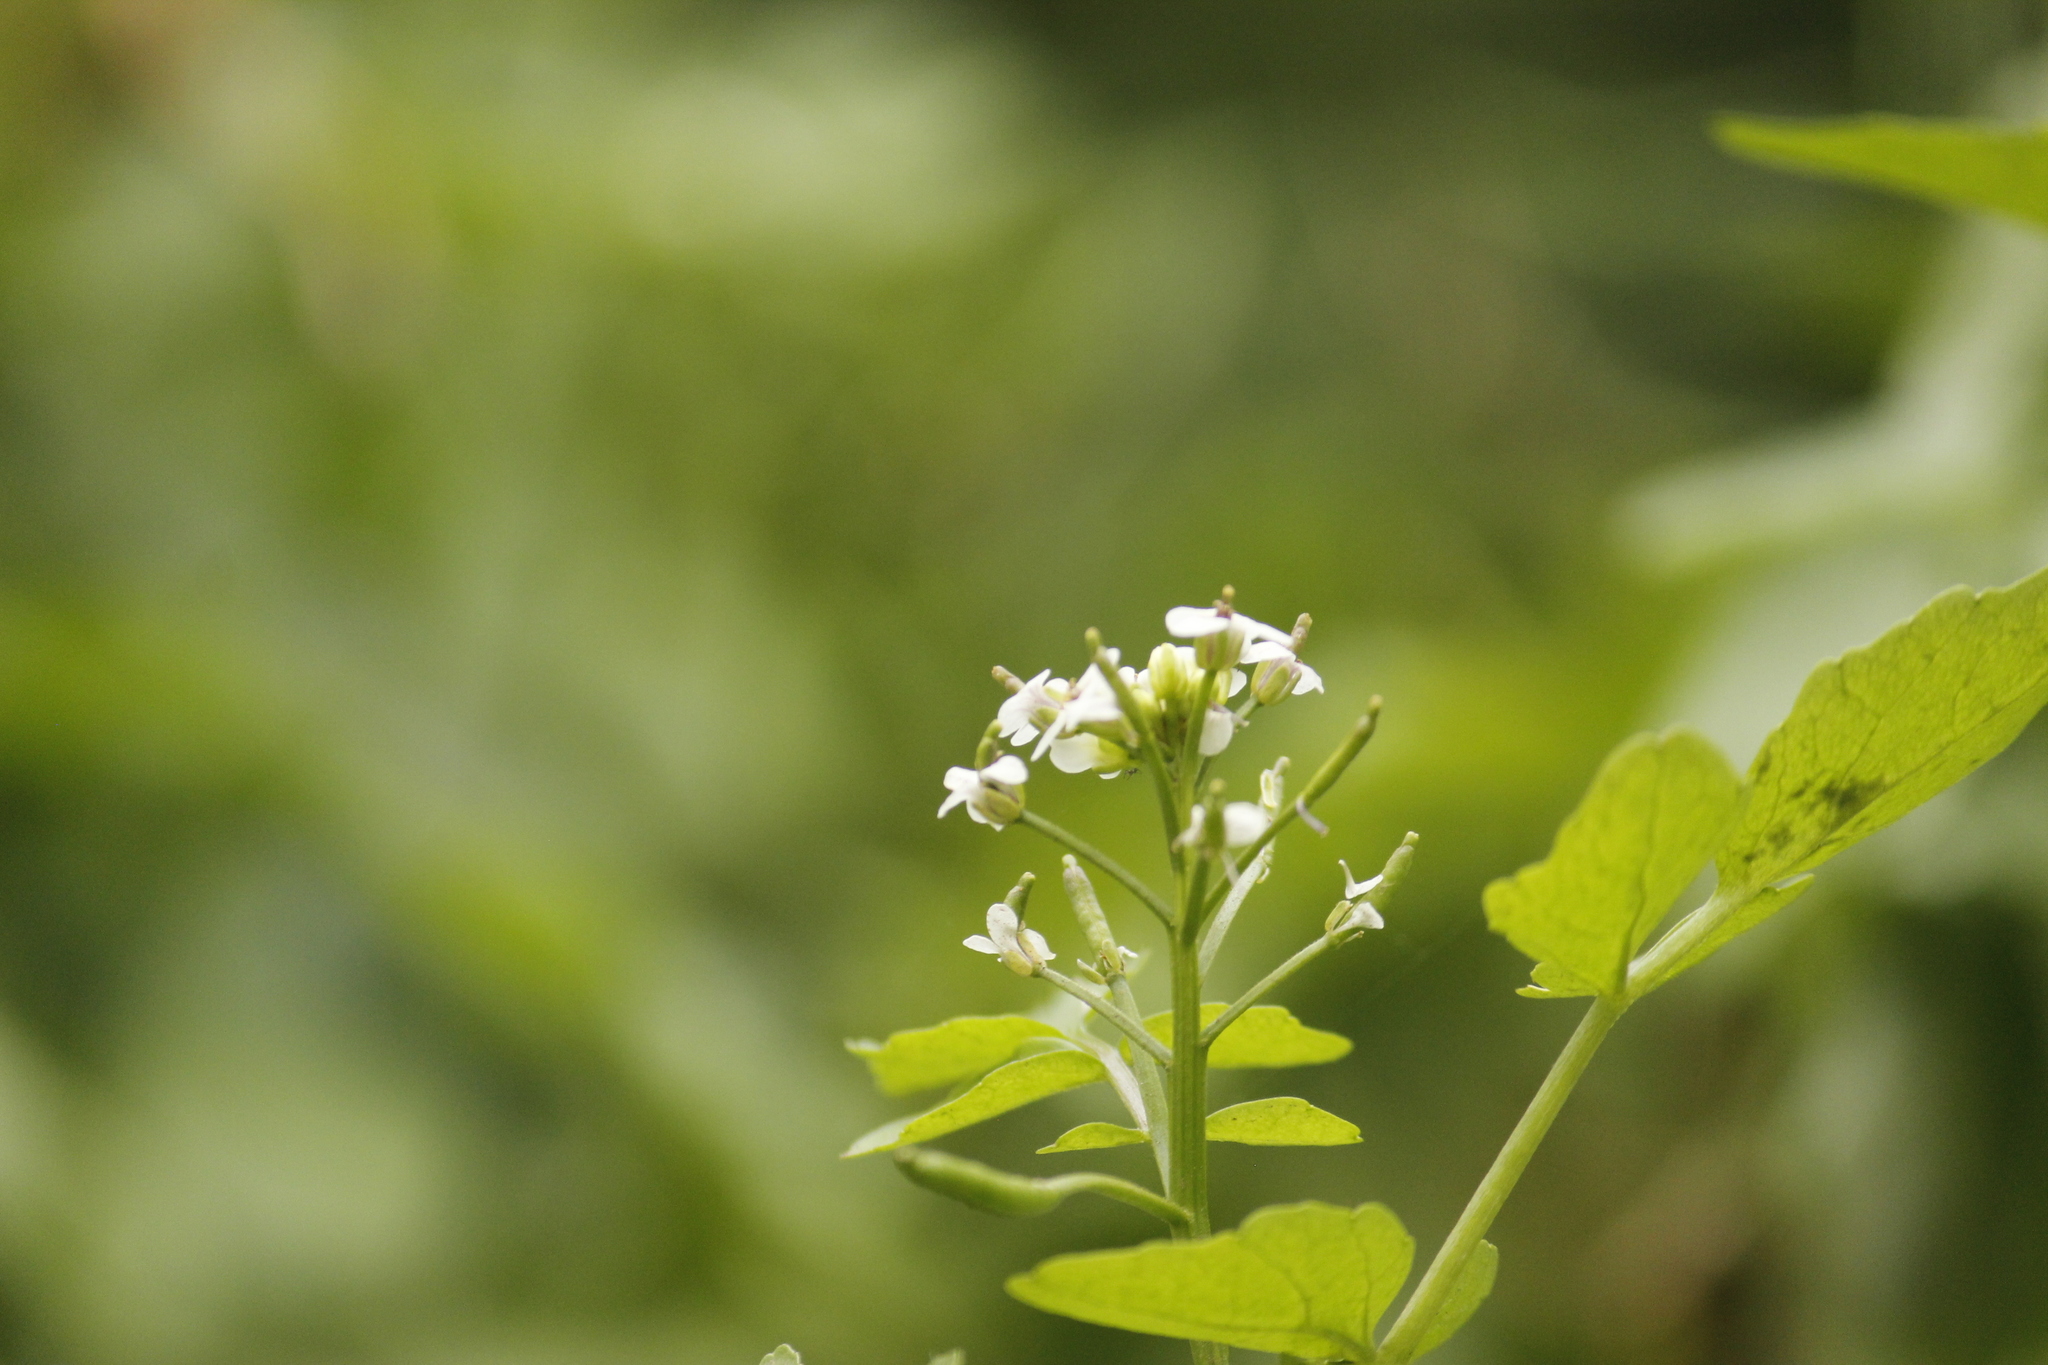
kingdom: Plantae
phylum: Tracheophyta
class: Magnoliopsida
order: Brassicales
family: Brassicaceae
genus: Nasturtium
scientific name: Nasturtium officinale
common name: Watercress
